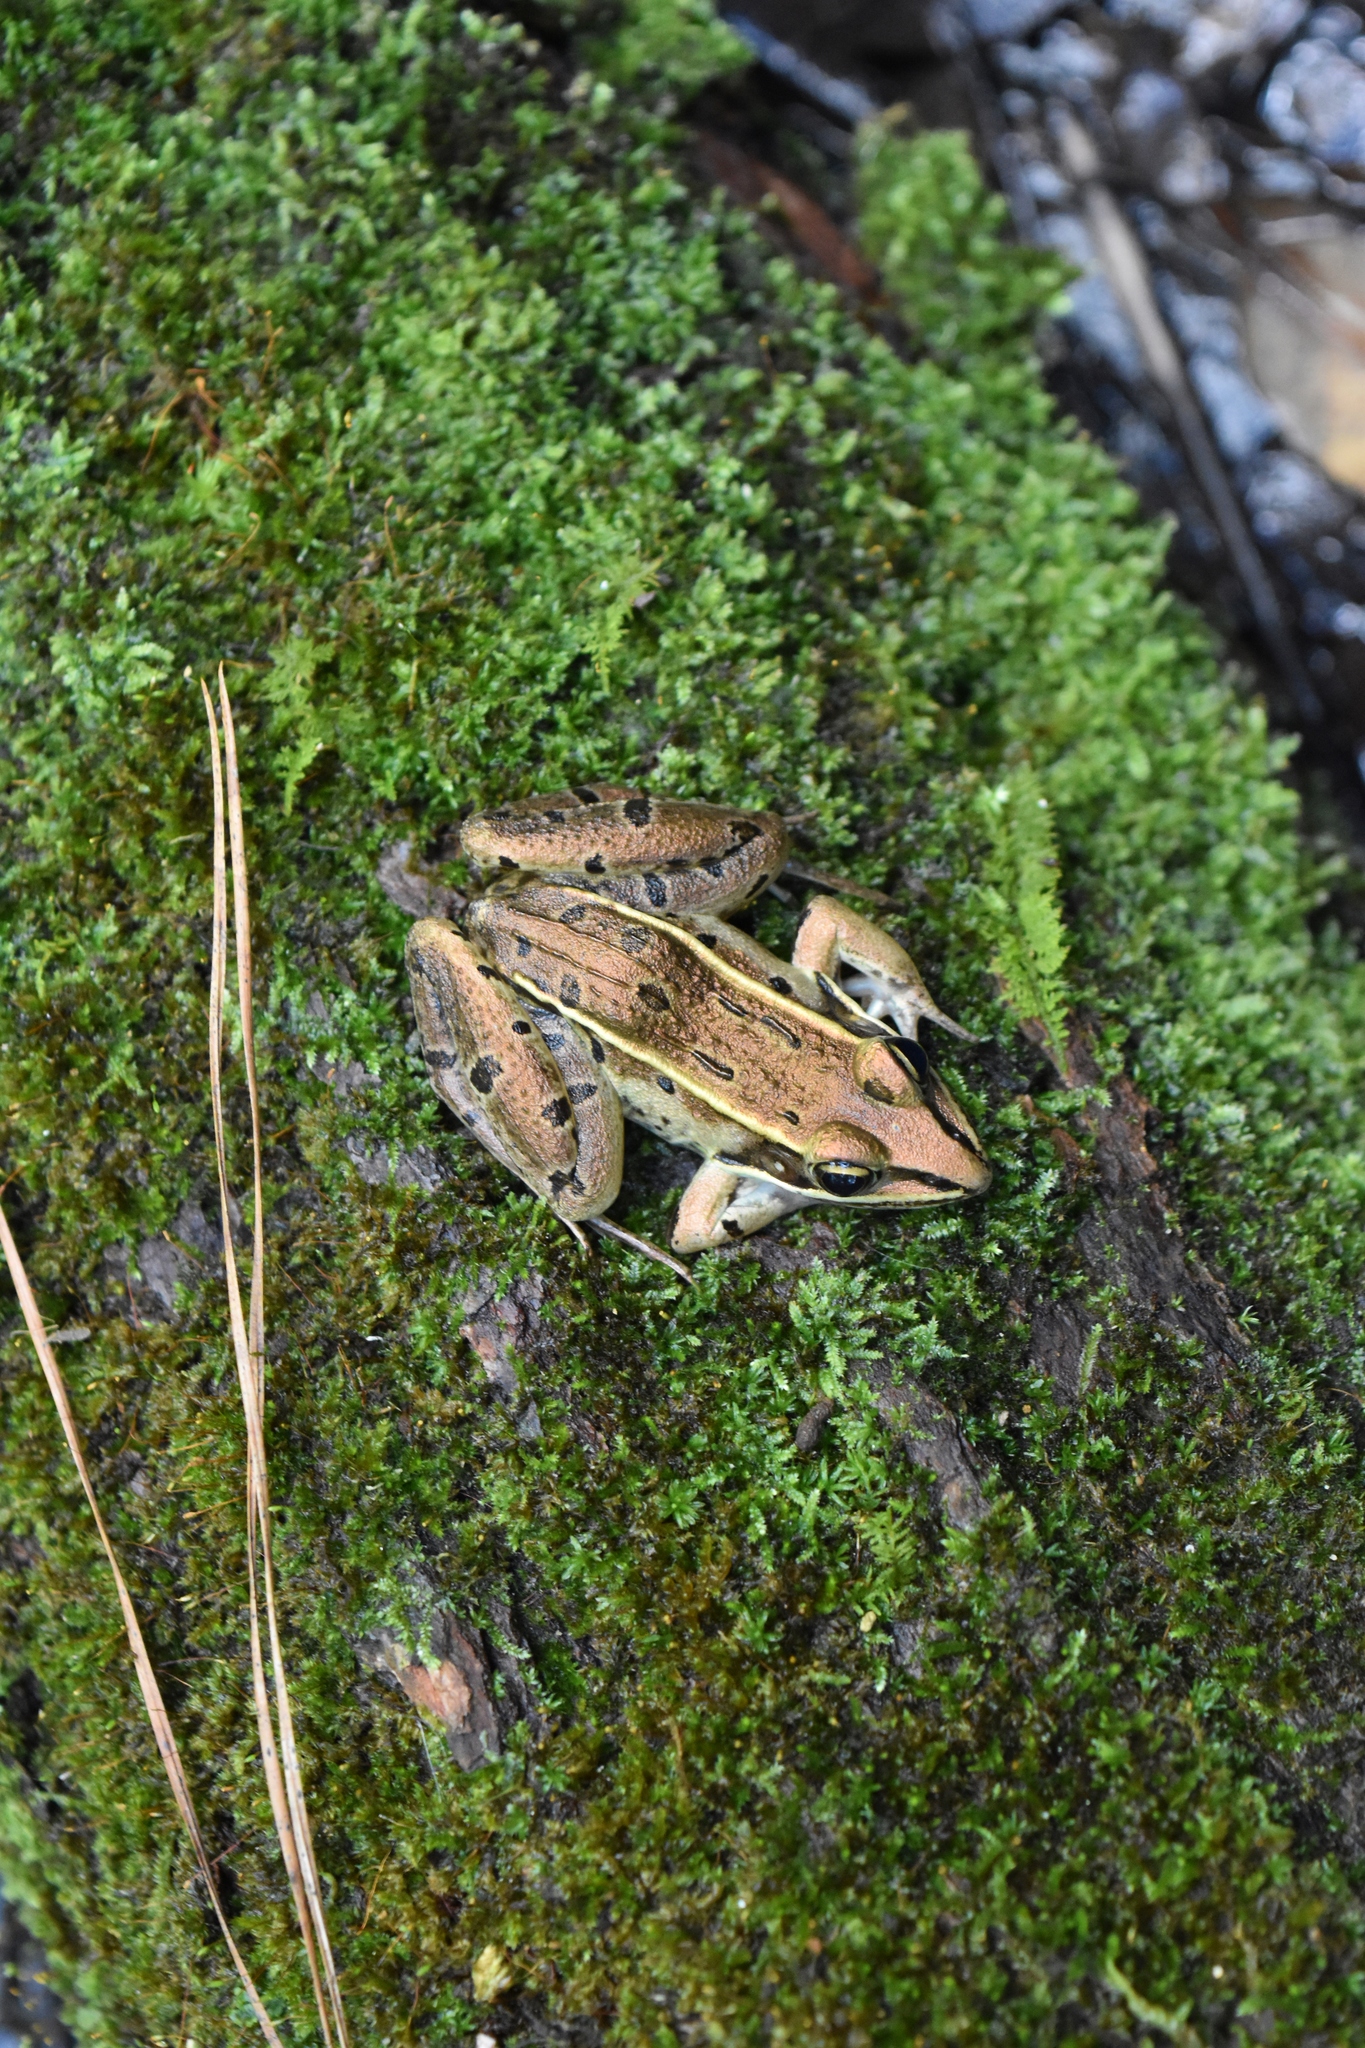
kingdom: Animalia
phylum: Chordata
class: Amphibia
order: Anura
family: Ranidae
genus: Lithobates
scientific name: Lithobates sphenocephalus
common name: Southern leopard frog
